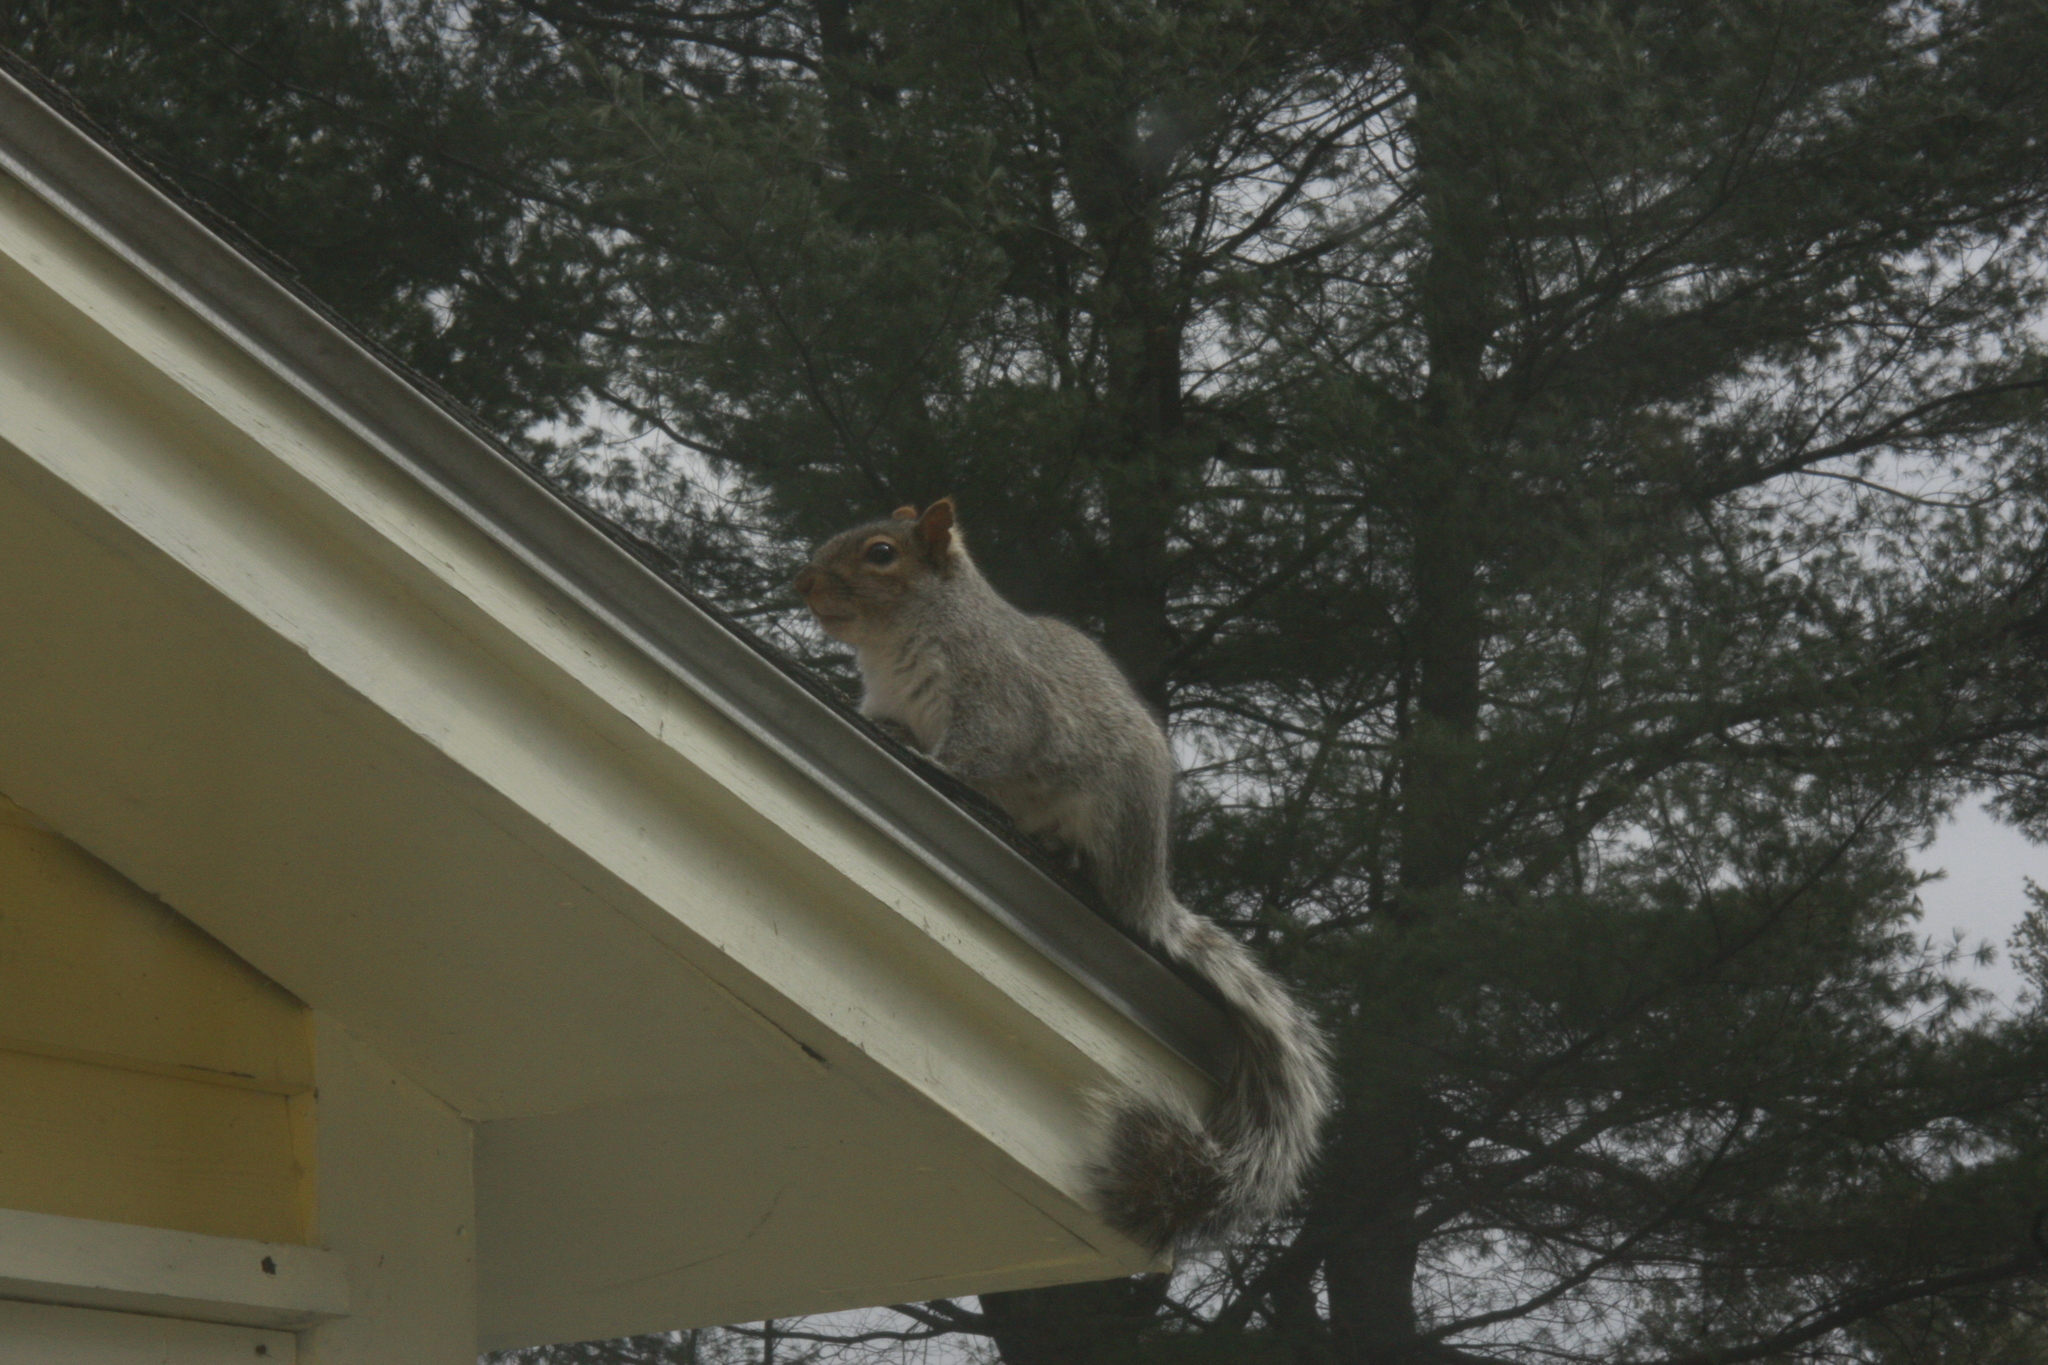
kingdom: Animalia
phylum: Chordata
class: Mammalia
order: Rodentia
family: Sciuridae
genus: Sciurus
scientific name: Sciurus carolinensis
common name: Eastern gray squirrel
